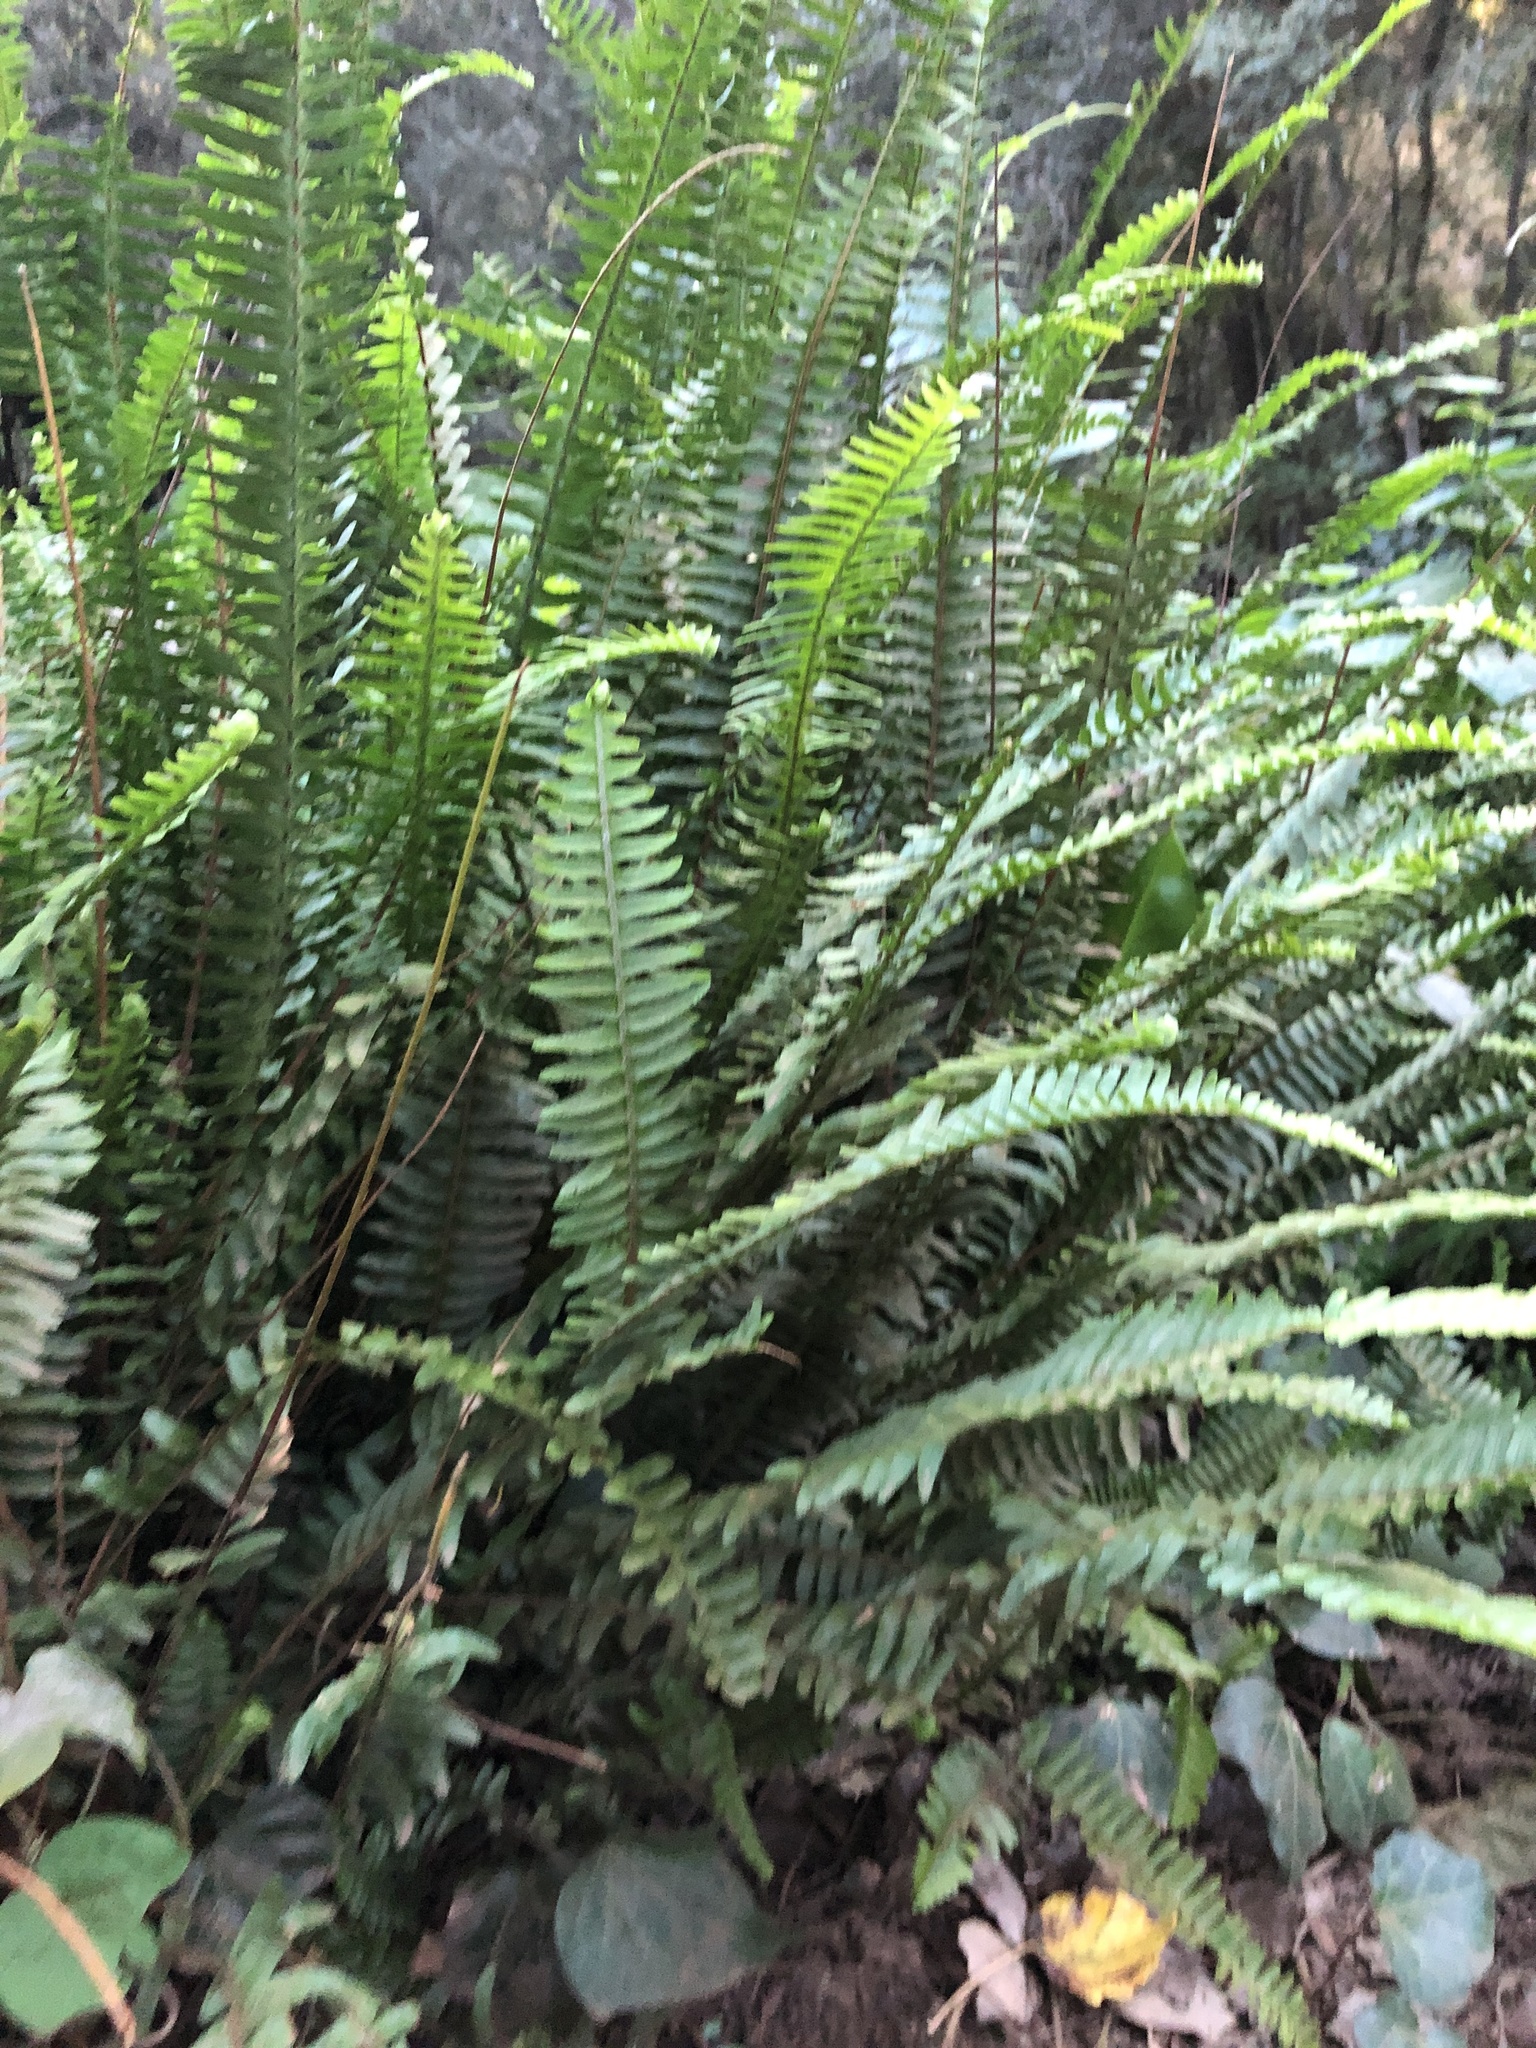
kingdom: Plantae
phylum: Tracheophyta
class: Polypodiopsida
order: Polypodiales
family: Nephrolepidaceae
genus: Nephrolepis
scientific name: Nephrolepis cordifolia
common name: Narrow swordfern
